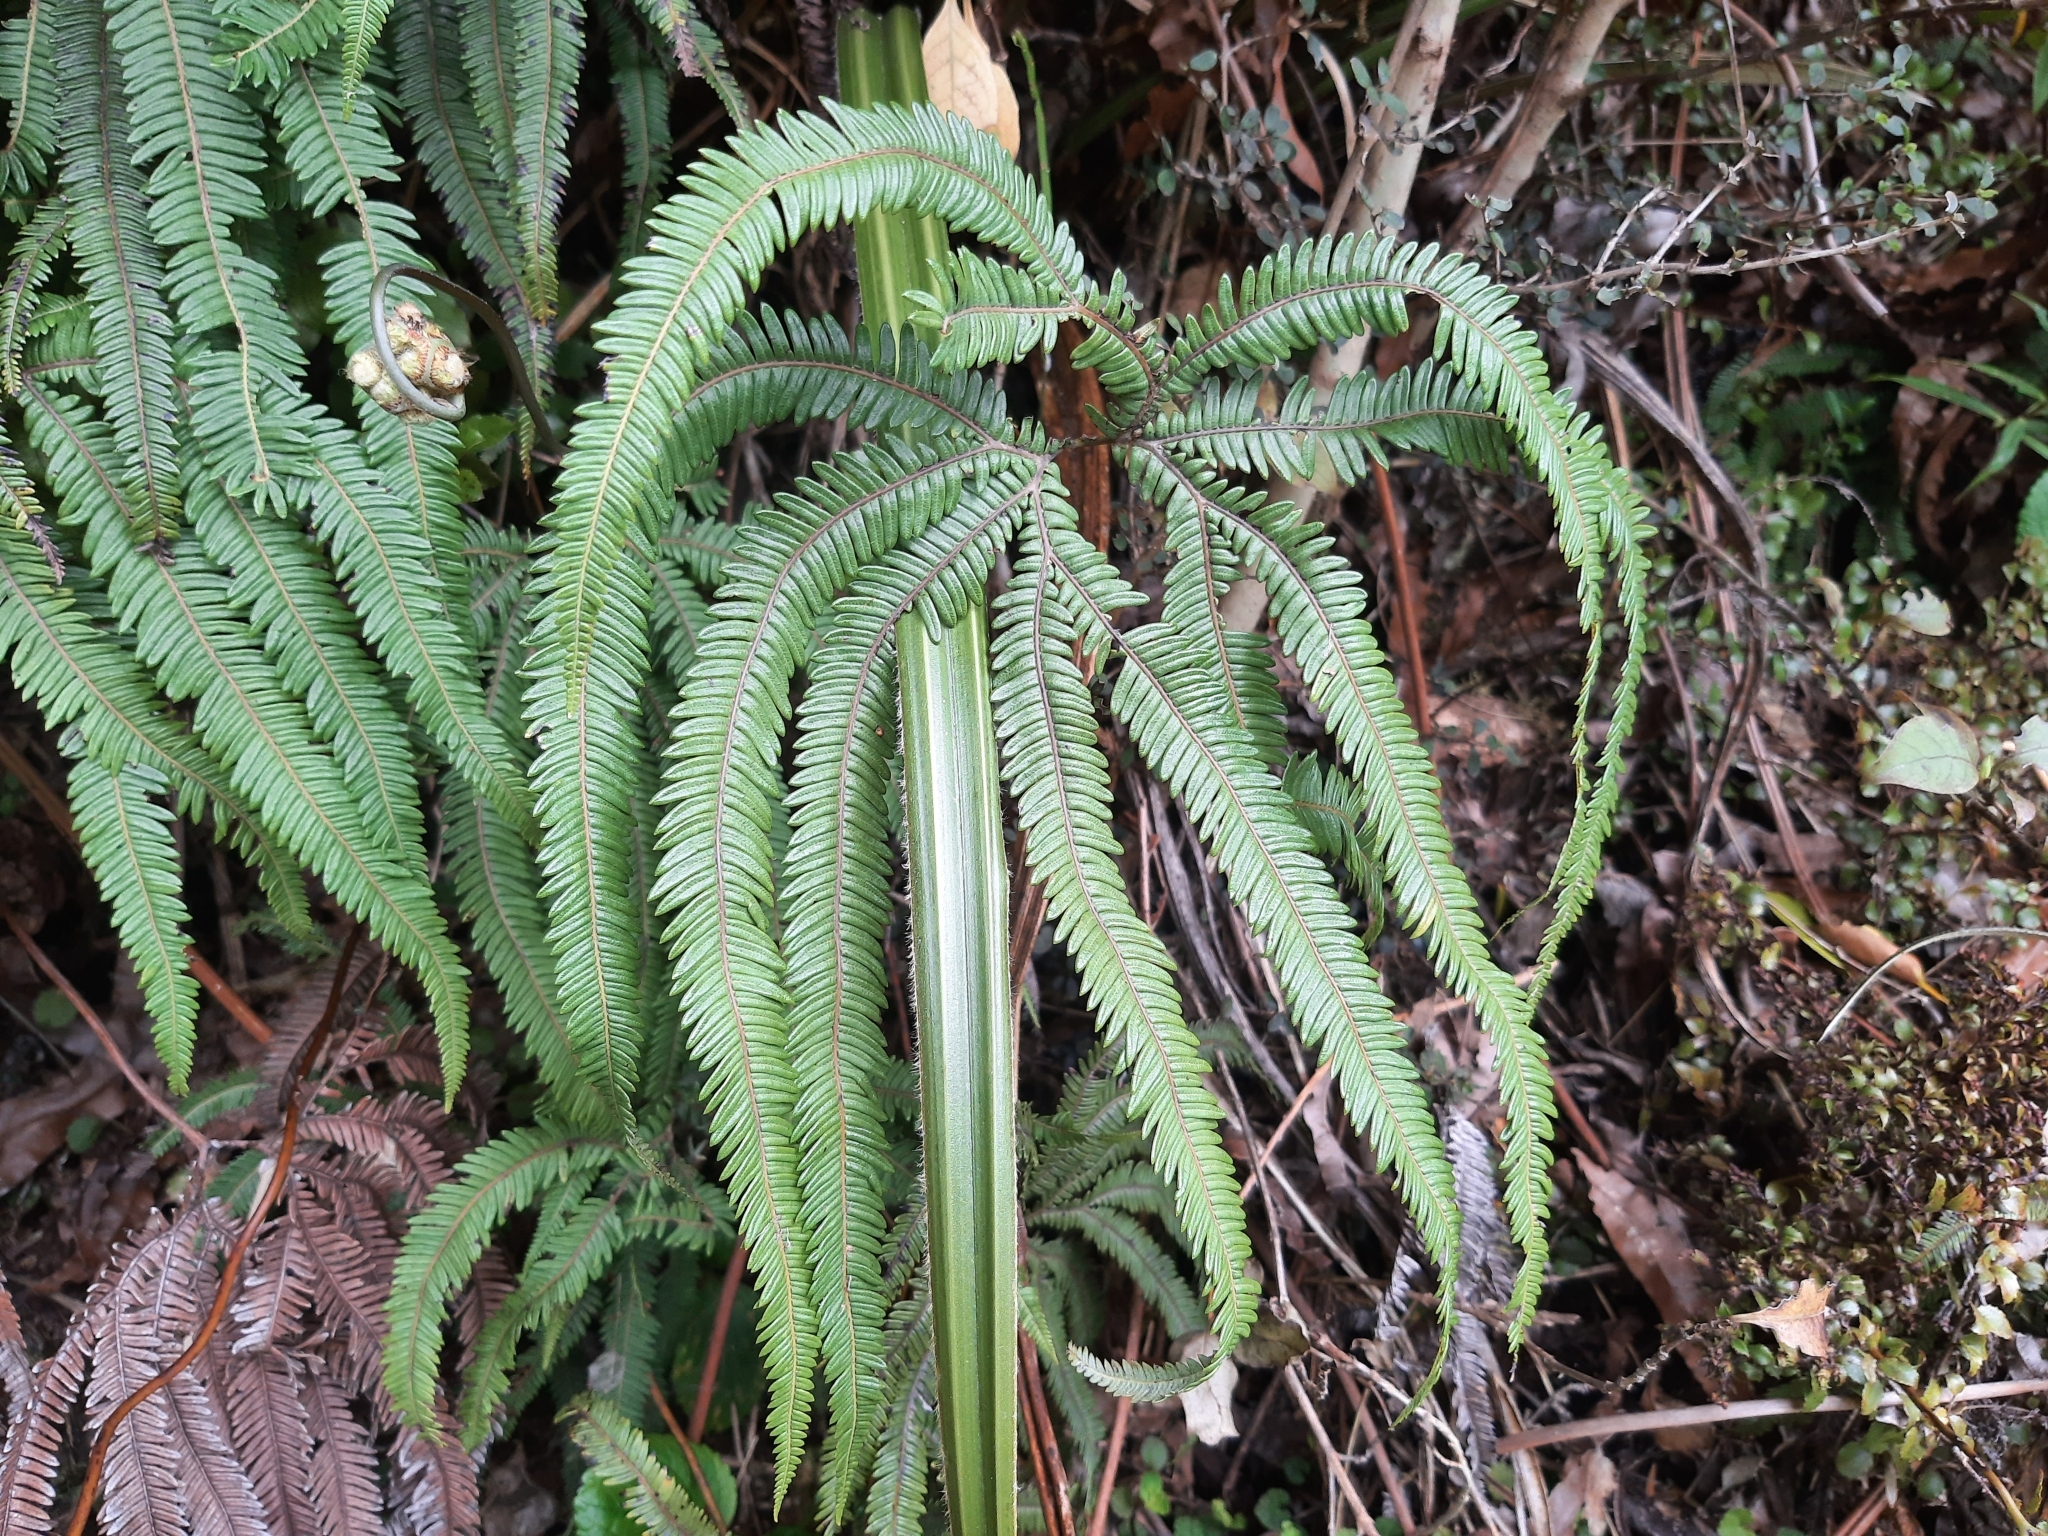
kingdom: Plantae
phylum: Tracheophyta
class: Polypodiopsida
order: Gleicheniales
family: Gleicheniaceae
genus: Sticherus
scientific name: Sticherus cunninghamii
